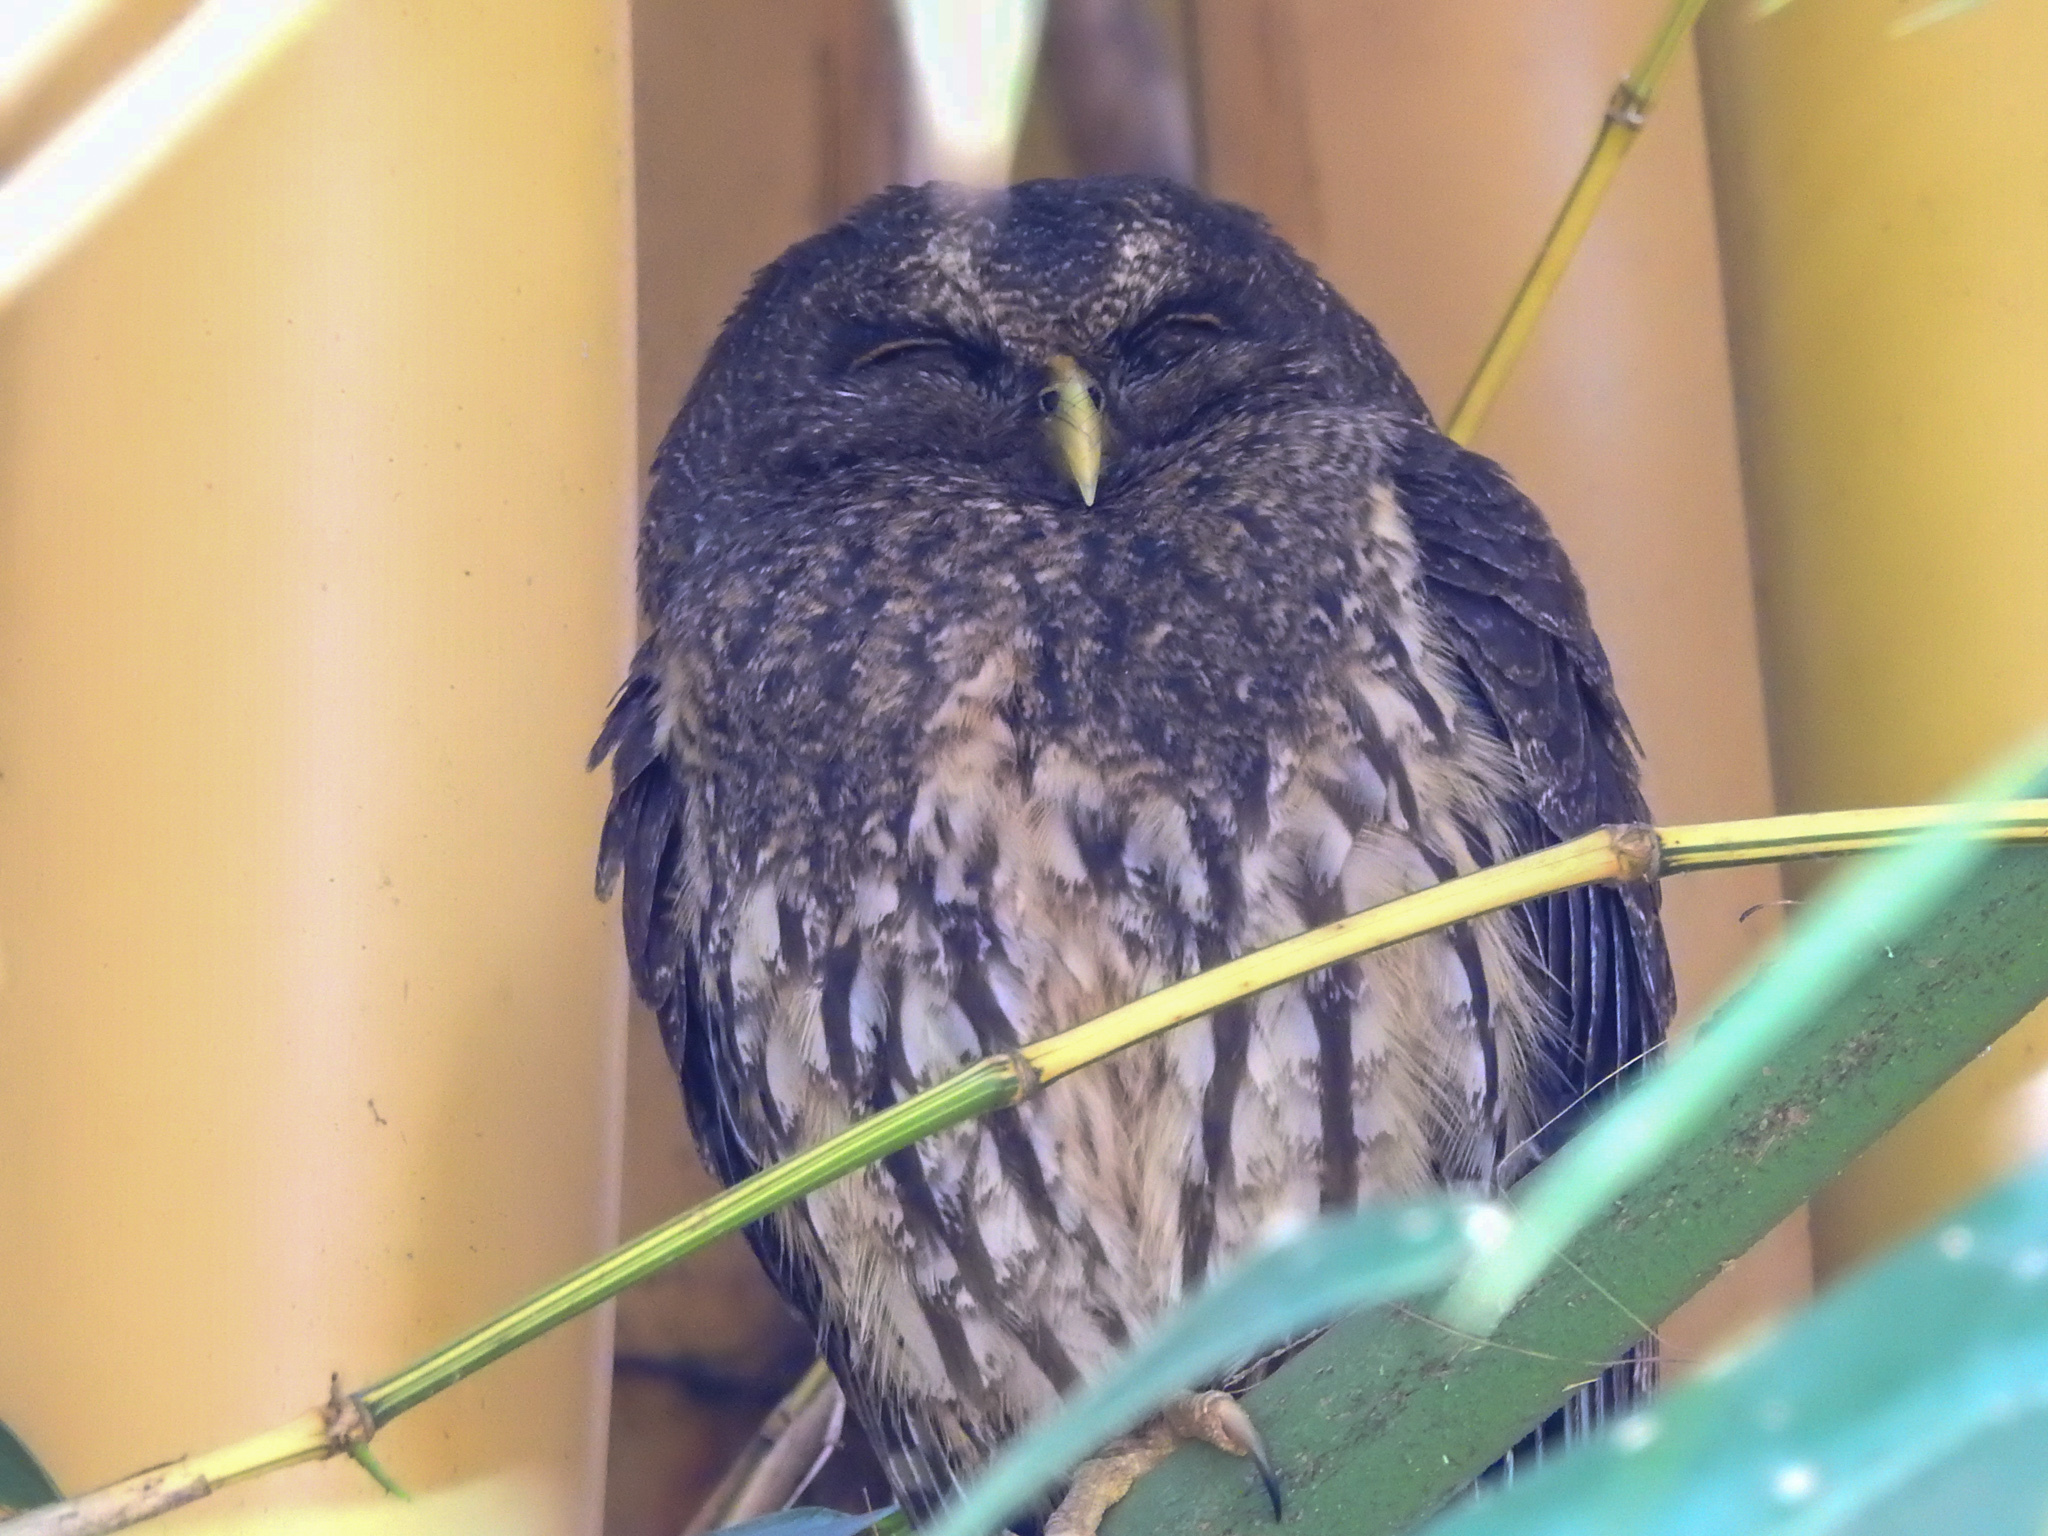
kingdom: Animalia
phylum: Chordata
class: Aves
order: Strigiformes
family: Strigidae
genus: Strix
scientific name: Strix virgata
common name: Mottled owl
